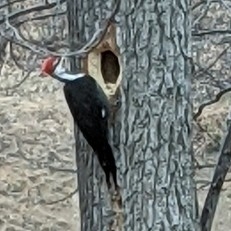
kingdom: Animalia
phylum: Chordata
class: Aves
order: Piciformes
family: Picidae
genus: Dryocopus
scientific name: Dryocopus pileatus
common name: Pileated woodpecker
